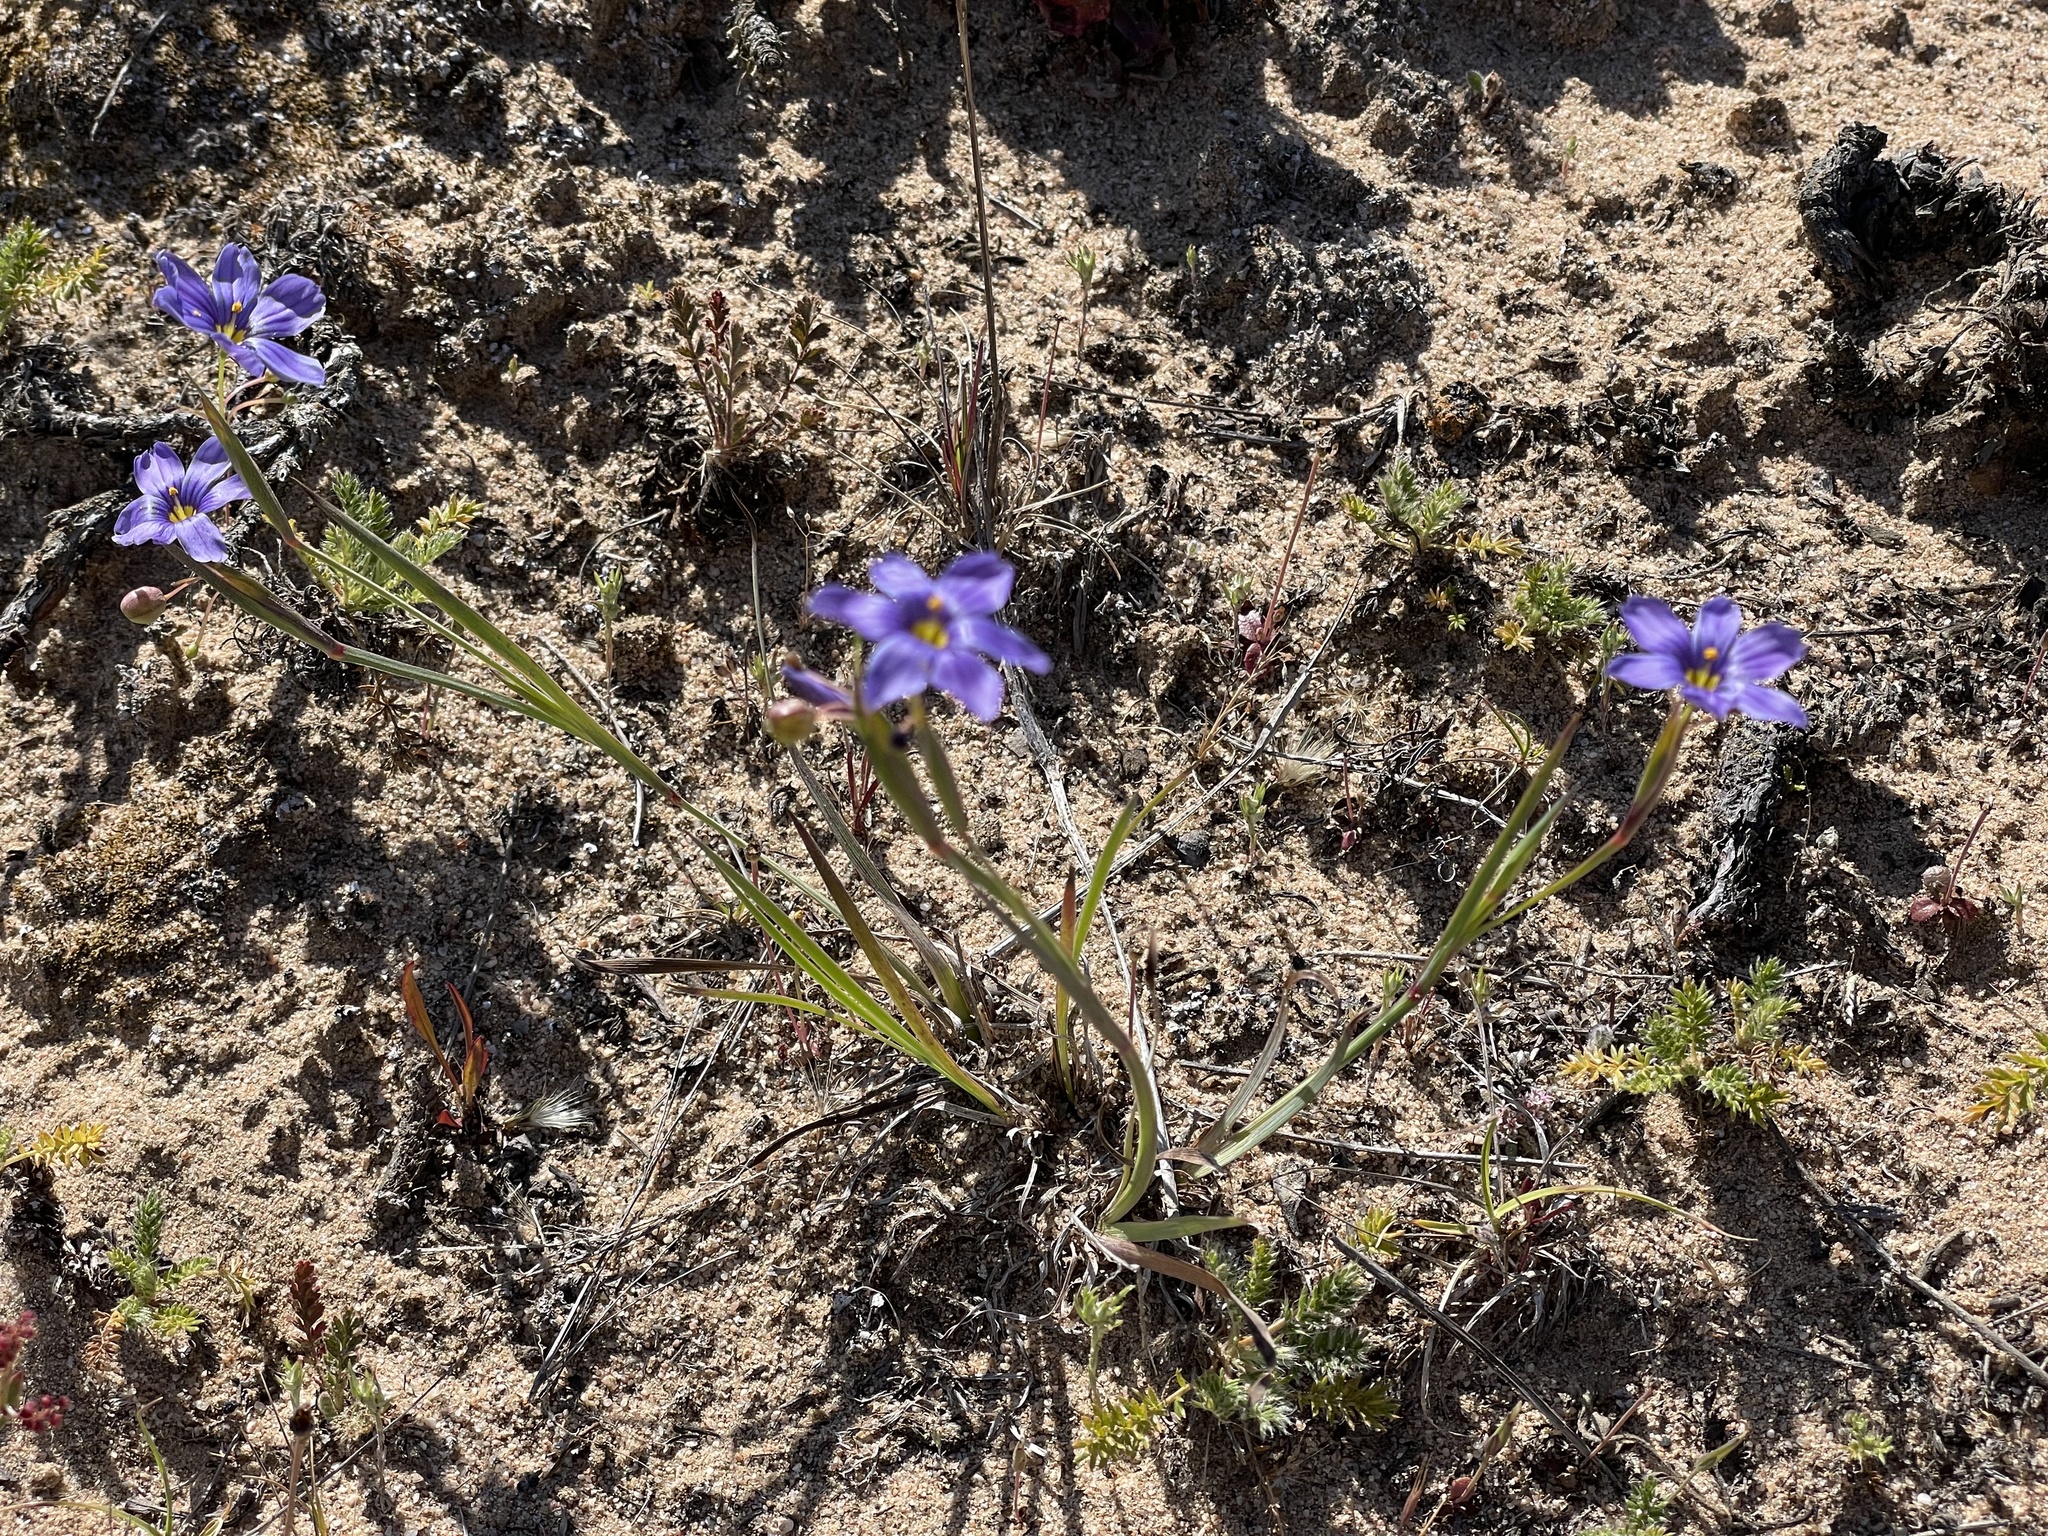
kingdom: Plantae
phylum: Tracheophyta
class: Liliopsida
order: Asparagales
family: Iridaceae
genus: Sisyrinchium
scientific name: Sisyrinchium bellum
